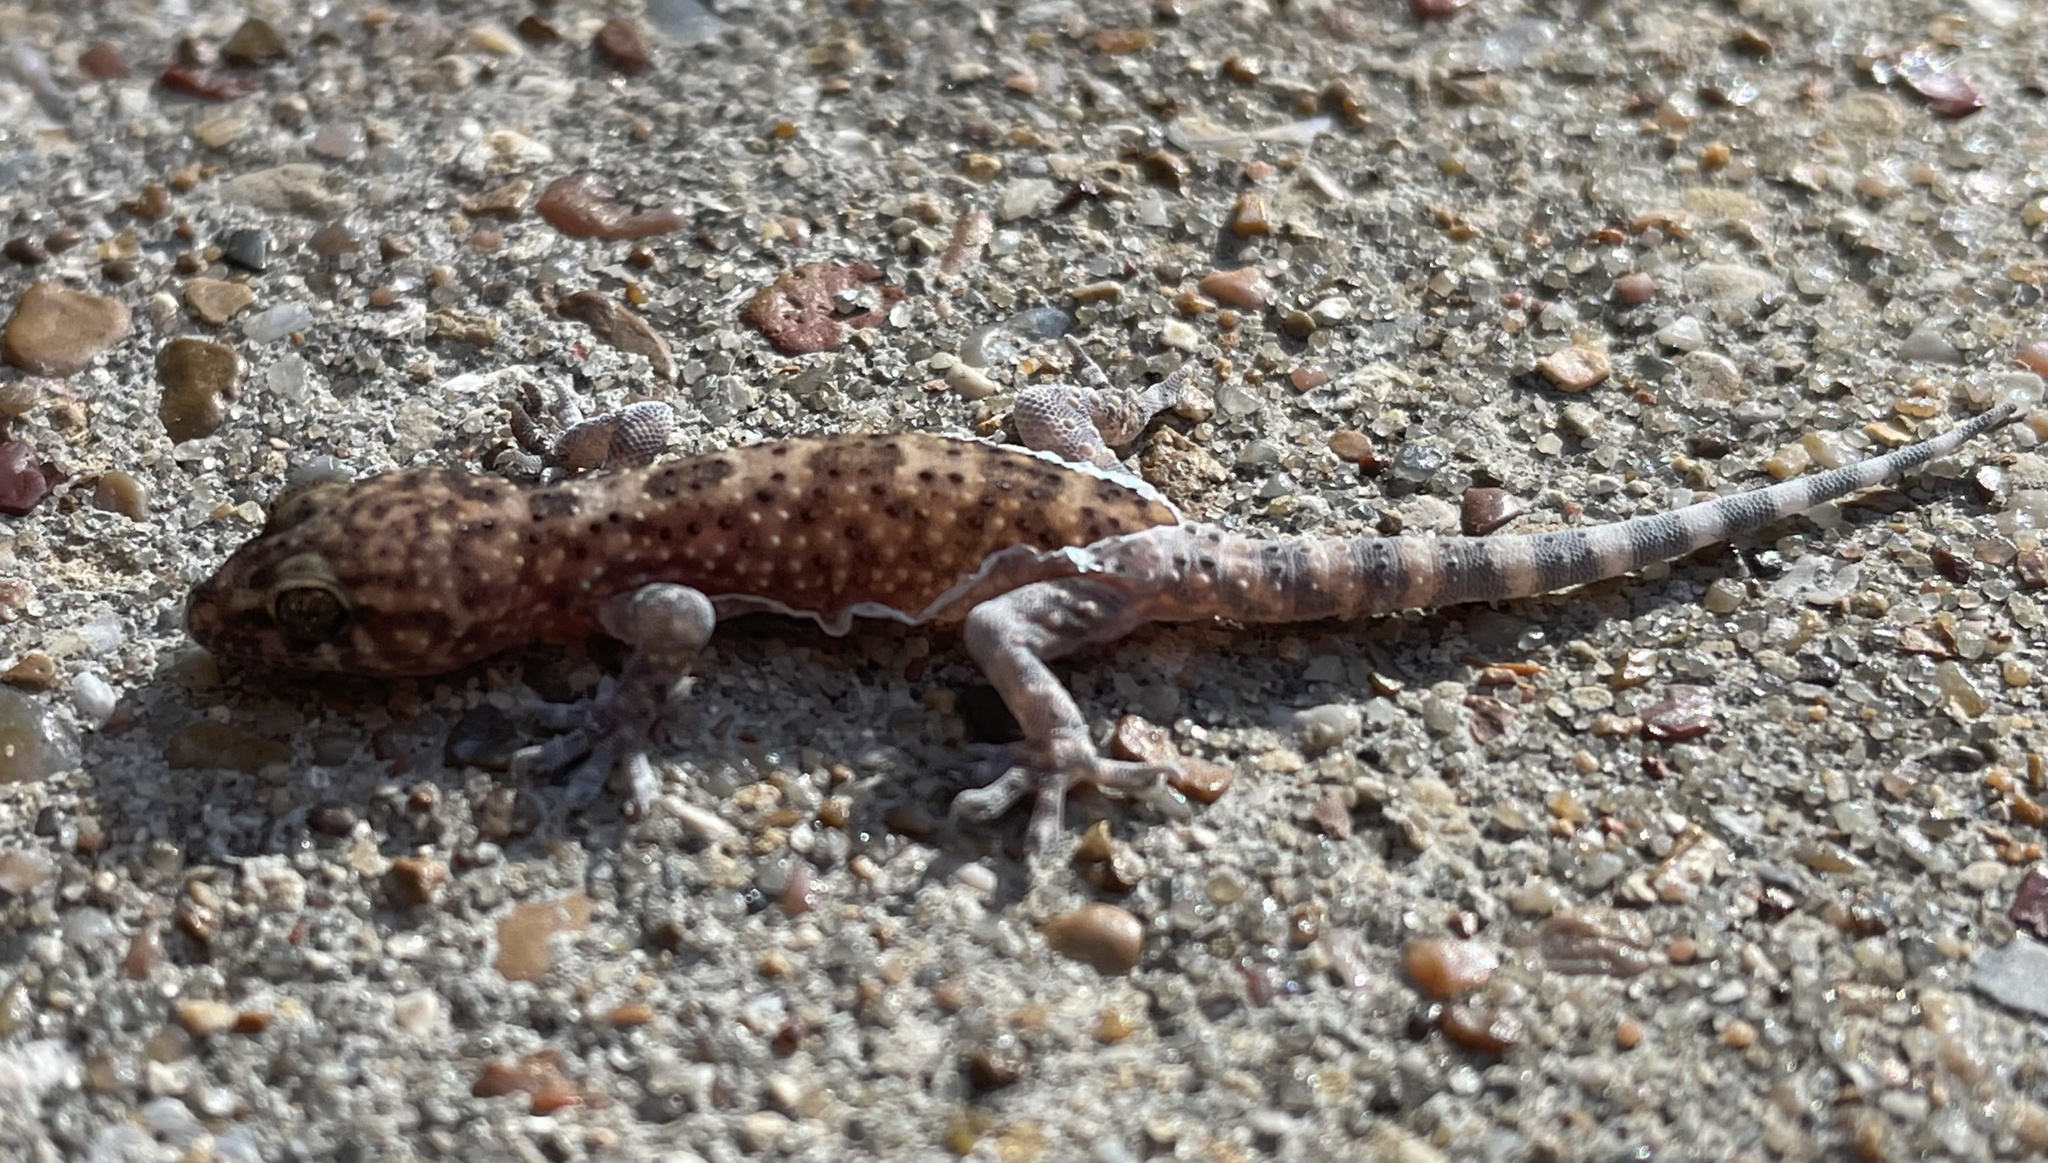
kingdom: Animalia
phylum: Chordata
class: Squamata
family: Gekkonidae
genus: Hemidactylus
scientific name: Hemidactylus turcicus
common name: Turkish gecko
